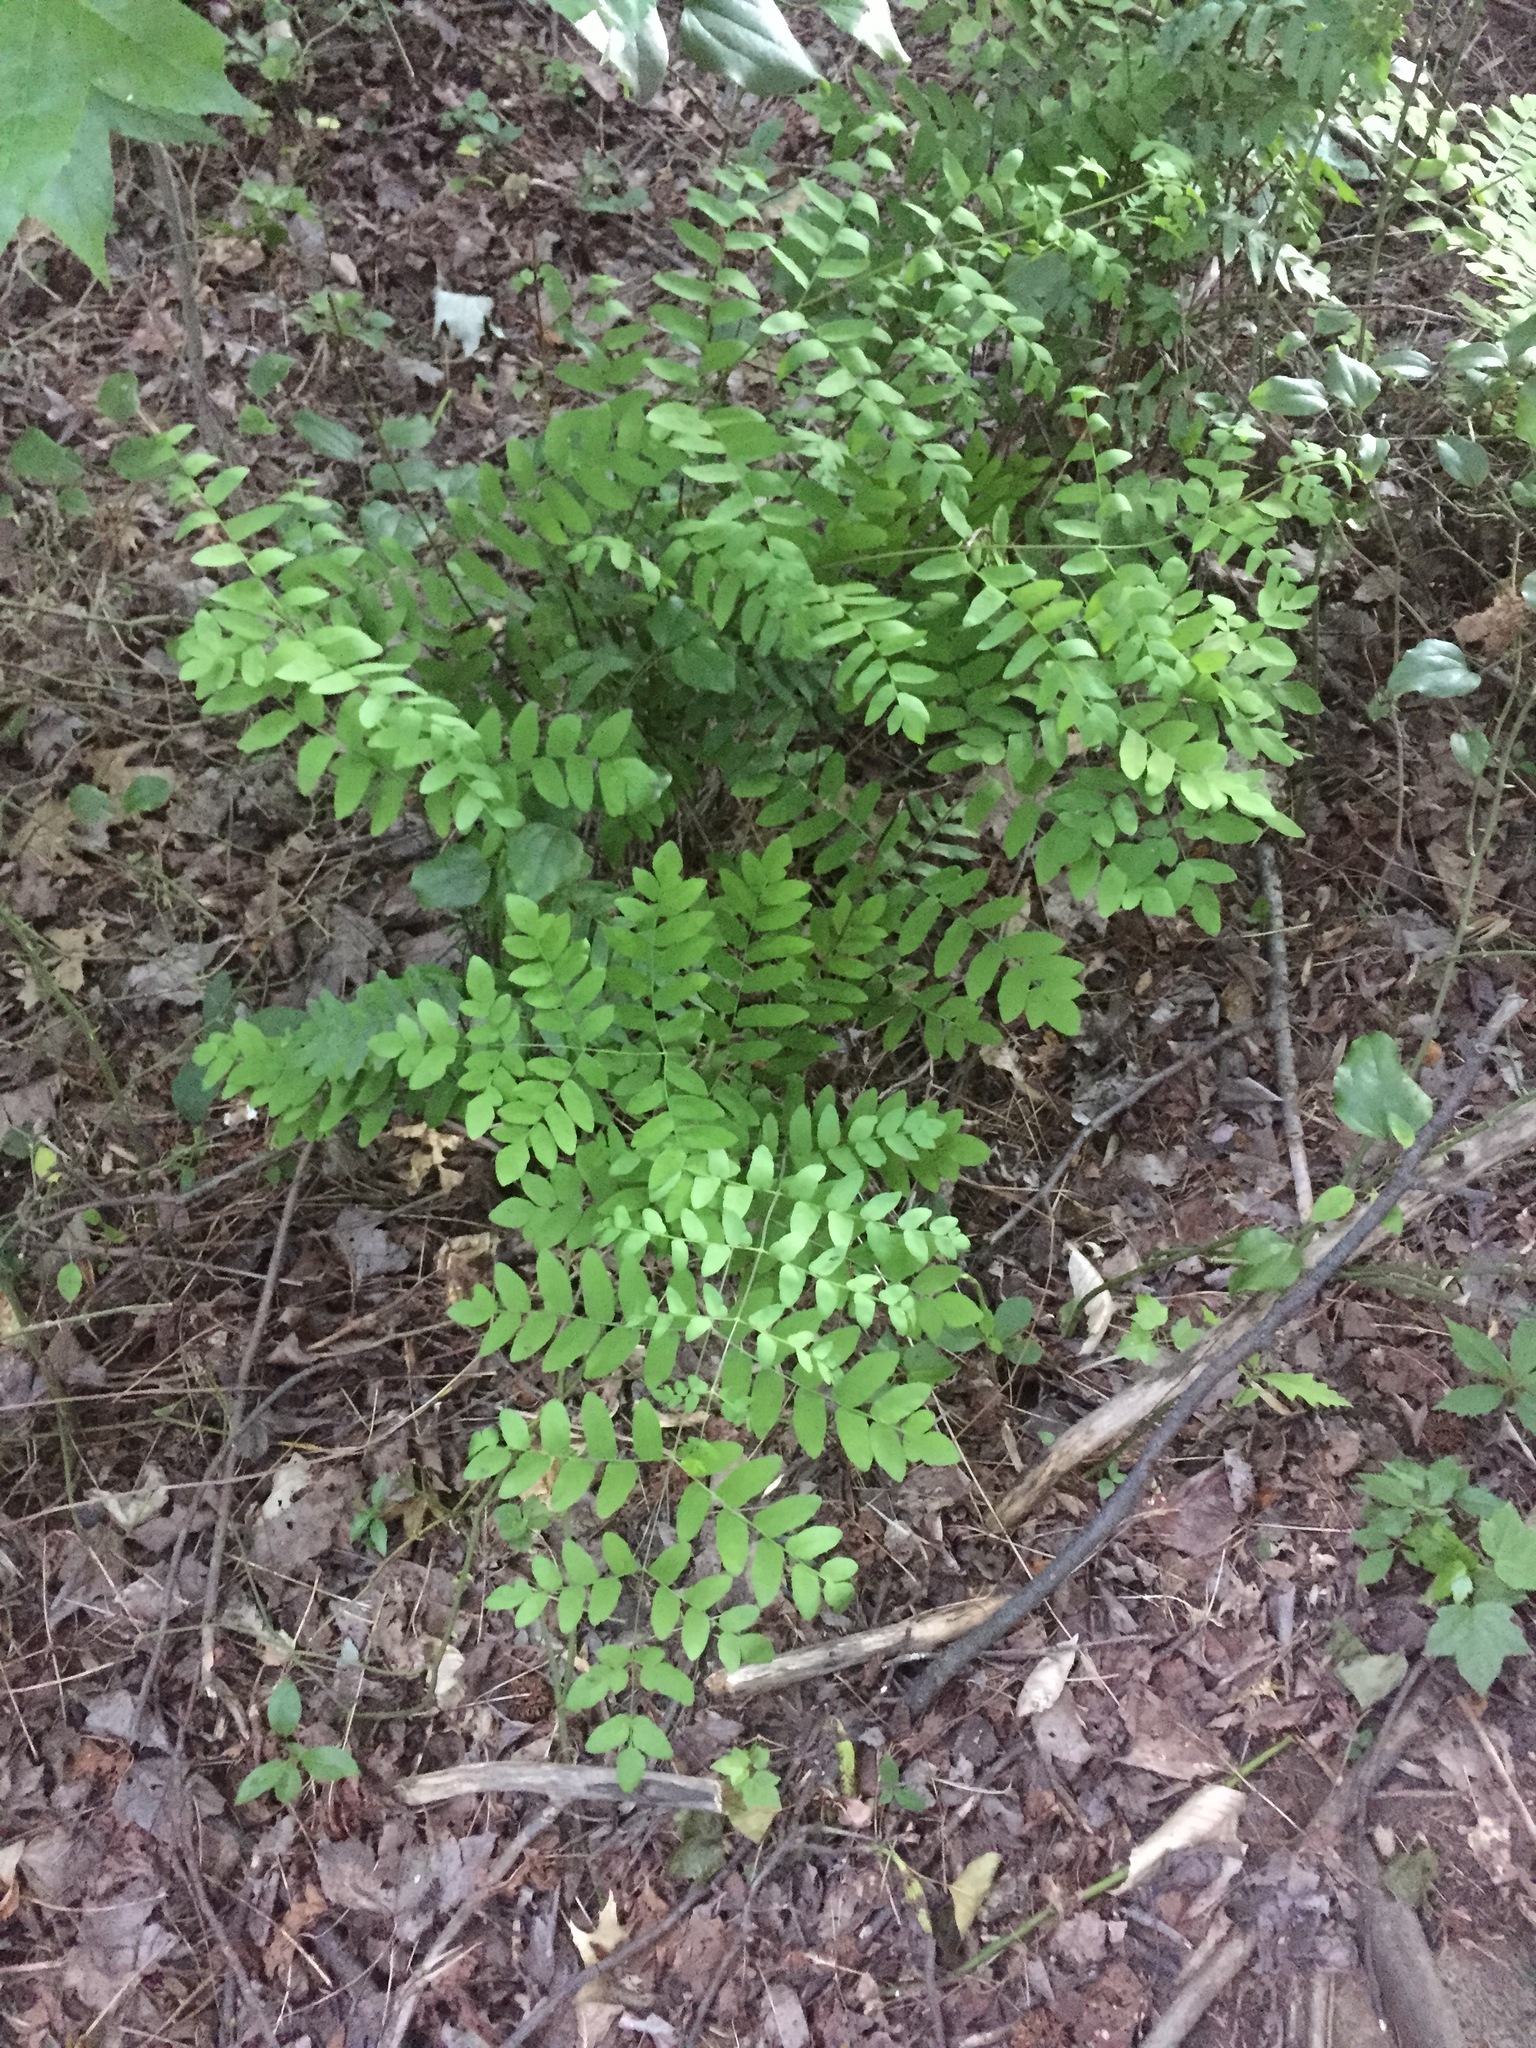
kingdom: Plantae
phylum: Tracheophyta
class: Polypodiopsida
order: Osmundales
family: Osmundaceae
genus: Osmunda
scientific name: Osmunda spectabilis
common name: American royal fern
